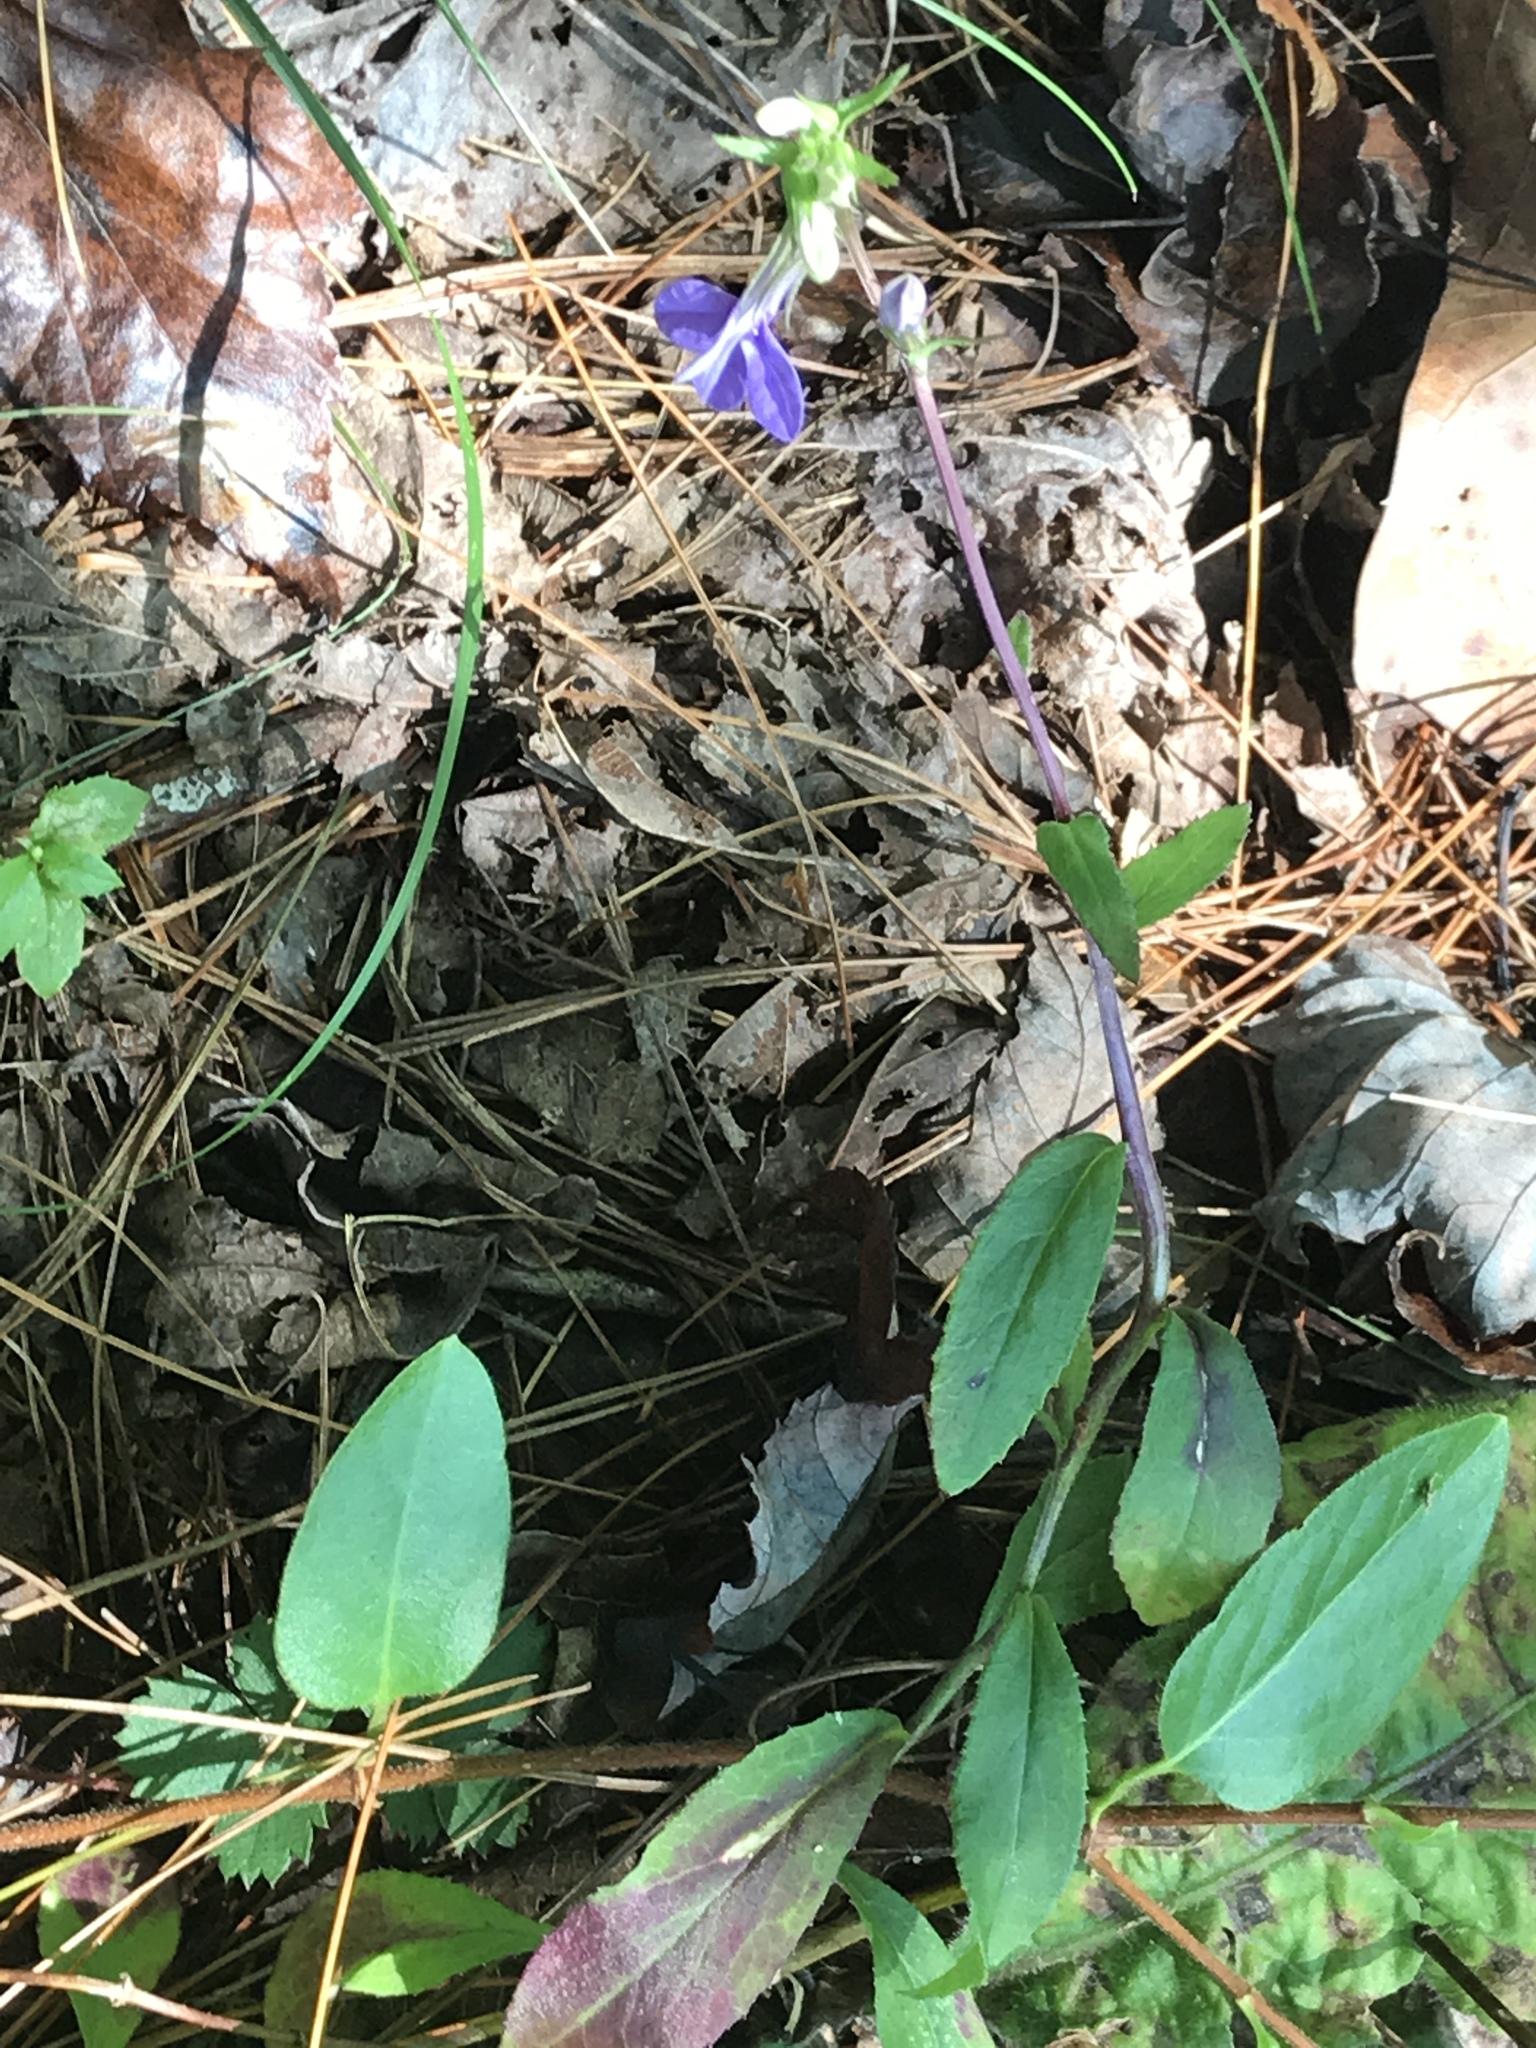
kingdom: Plantae
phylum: Tracheophyta
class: Magnoliopsida
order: Asterales
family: Campanulaceae
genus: Lobelia
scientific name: Lobelia puberula
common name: Purple dewdrop
